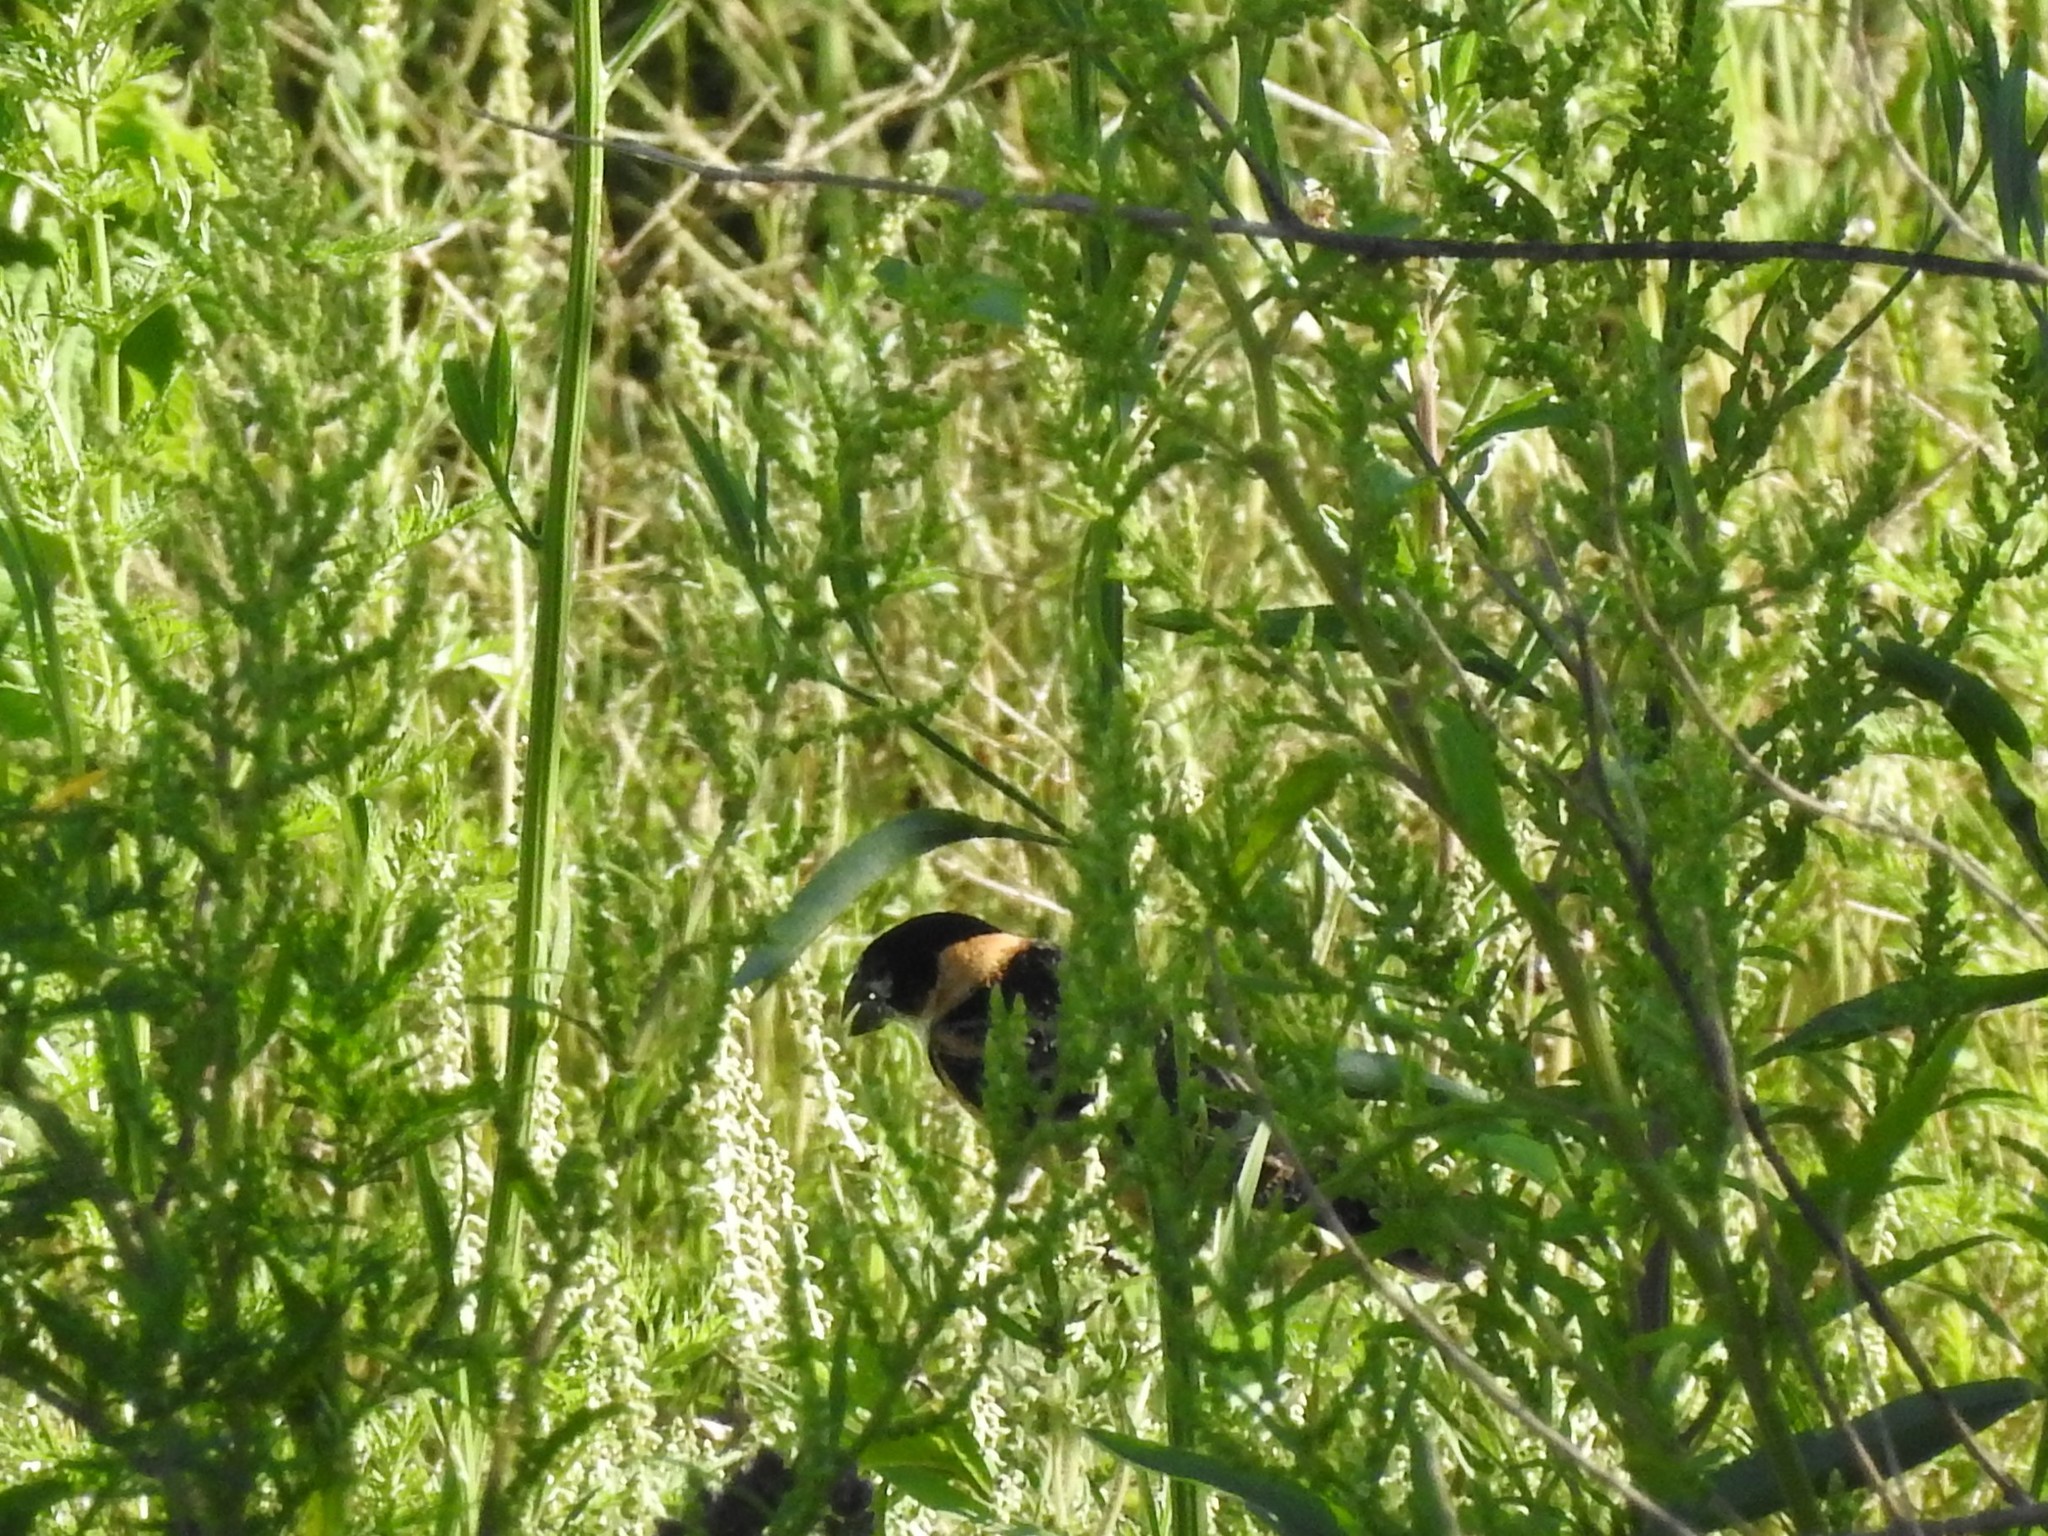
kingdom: Animalia
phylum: Chordata
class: Aves
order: Passeriformes
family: Thraupidae
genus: Sporophila
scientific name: Sporophila collaris
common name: Rusty-collared seedeater
